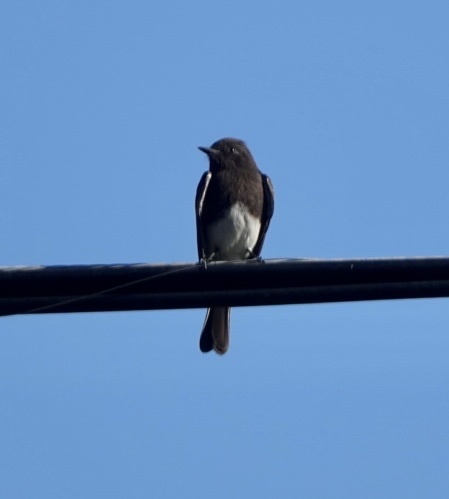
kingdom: Animalia
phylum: Chordata
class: Aves
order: Passeriformes
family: Tyrannidae
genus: Sayornis
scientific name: Sayornis nigricans
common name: Black phoebe
